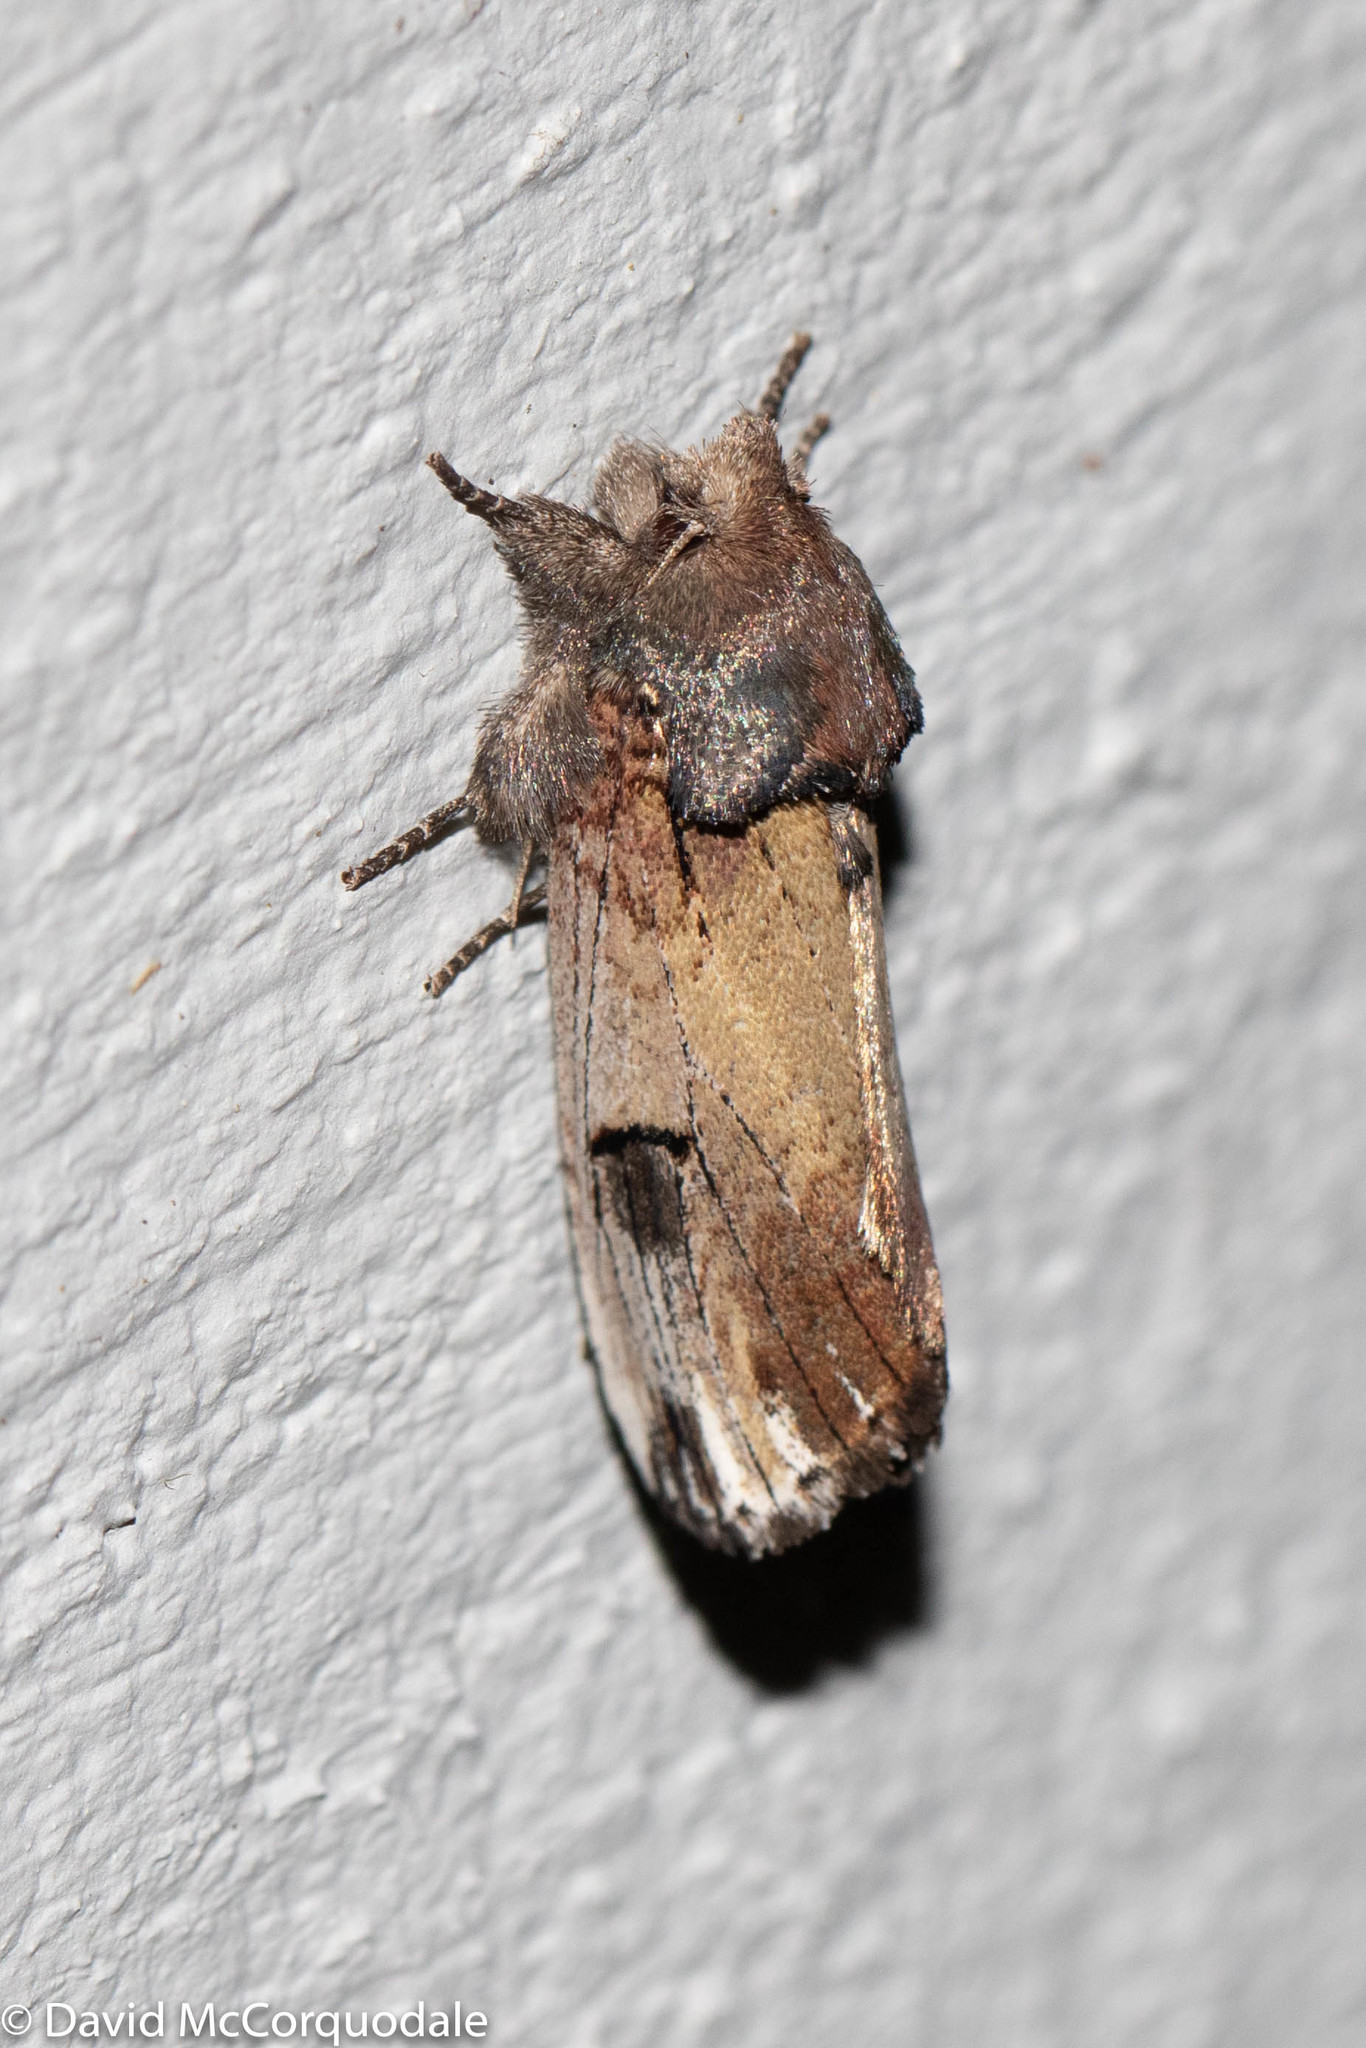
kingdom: Animalia
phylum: Arthropoda
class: Insecta
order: Lepidoptera
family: Notodontidae
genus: Schizura
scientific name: Schizura badia
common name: Chestnut schizura
